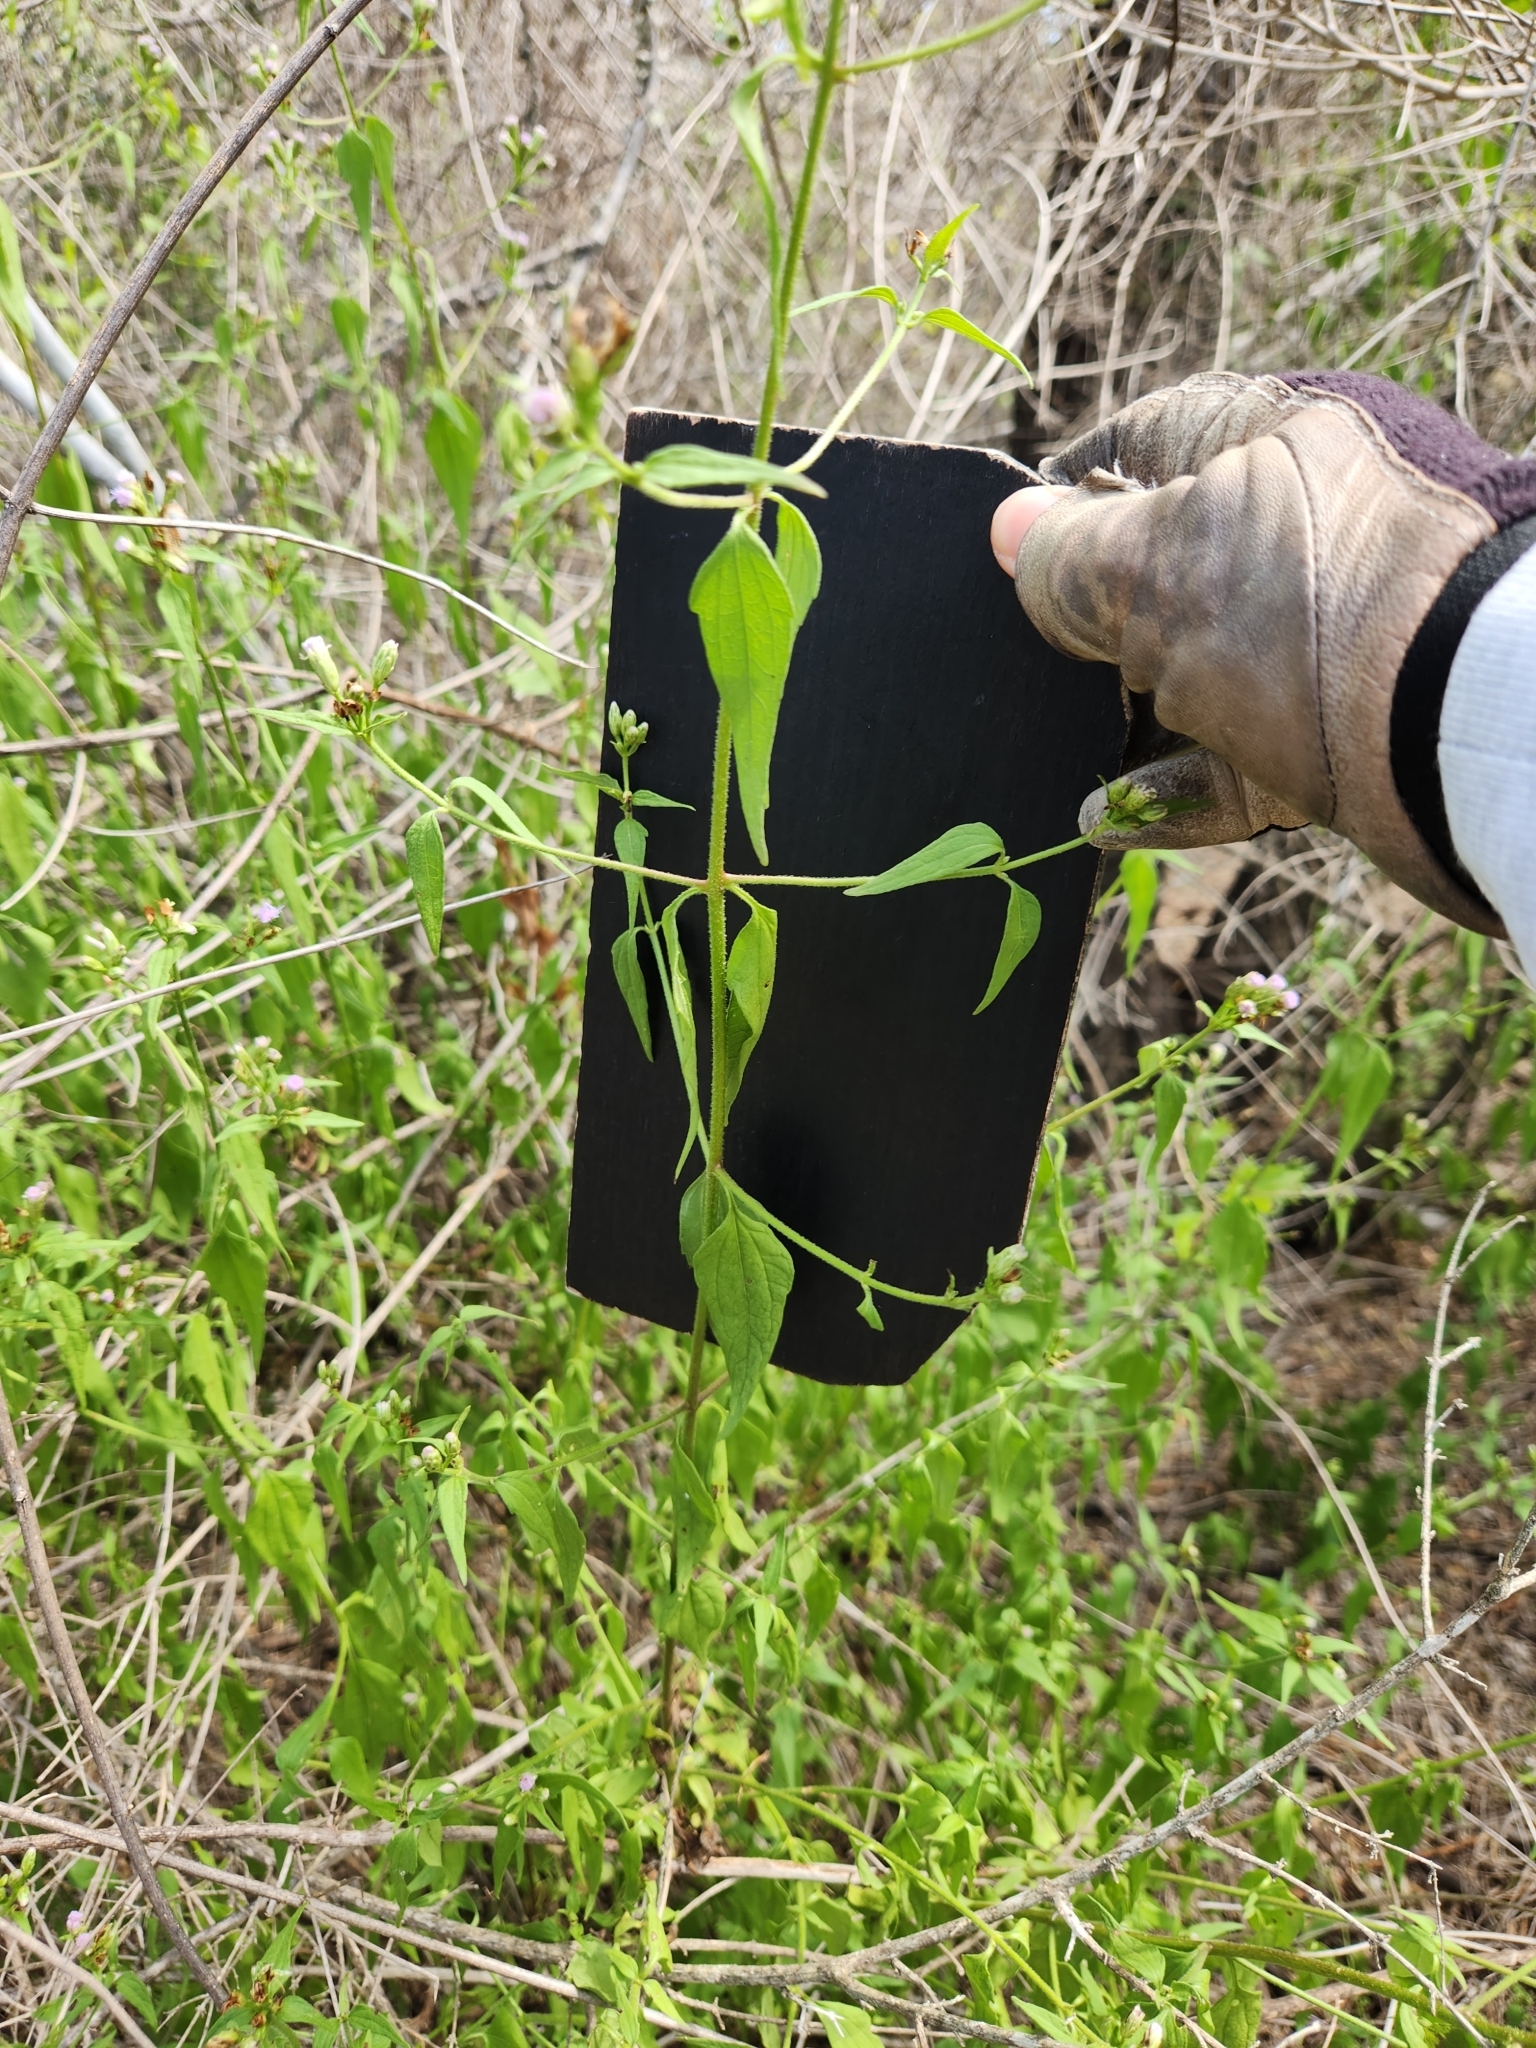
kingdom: Plantae
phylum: Tracheophyta
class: Magnoliopsida
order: Asterales
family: Asteraceae
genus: Chromolaena
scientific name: Chromolaena odorata
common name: Siamweed
